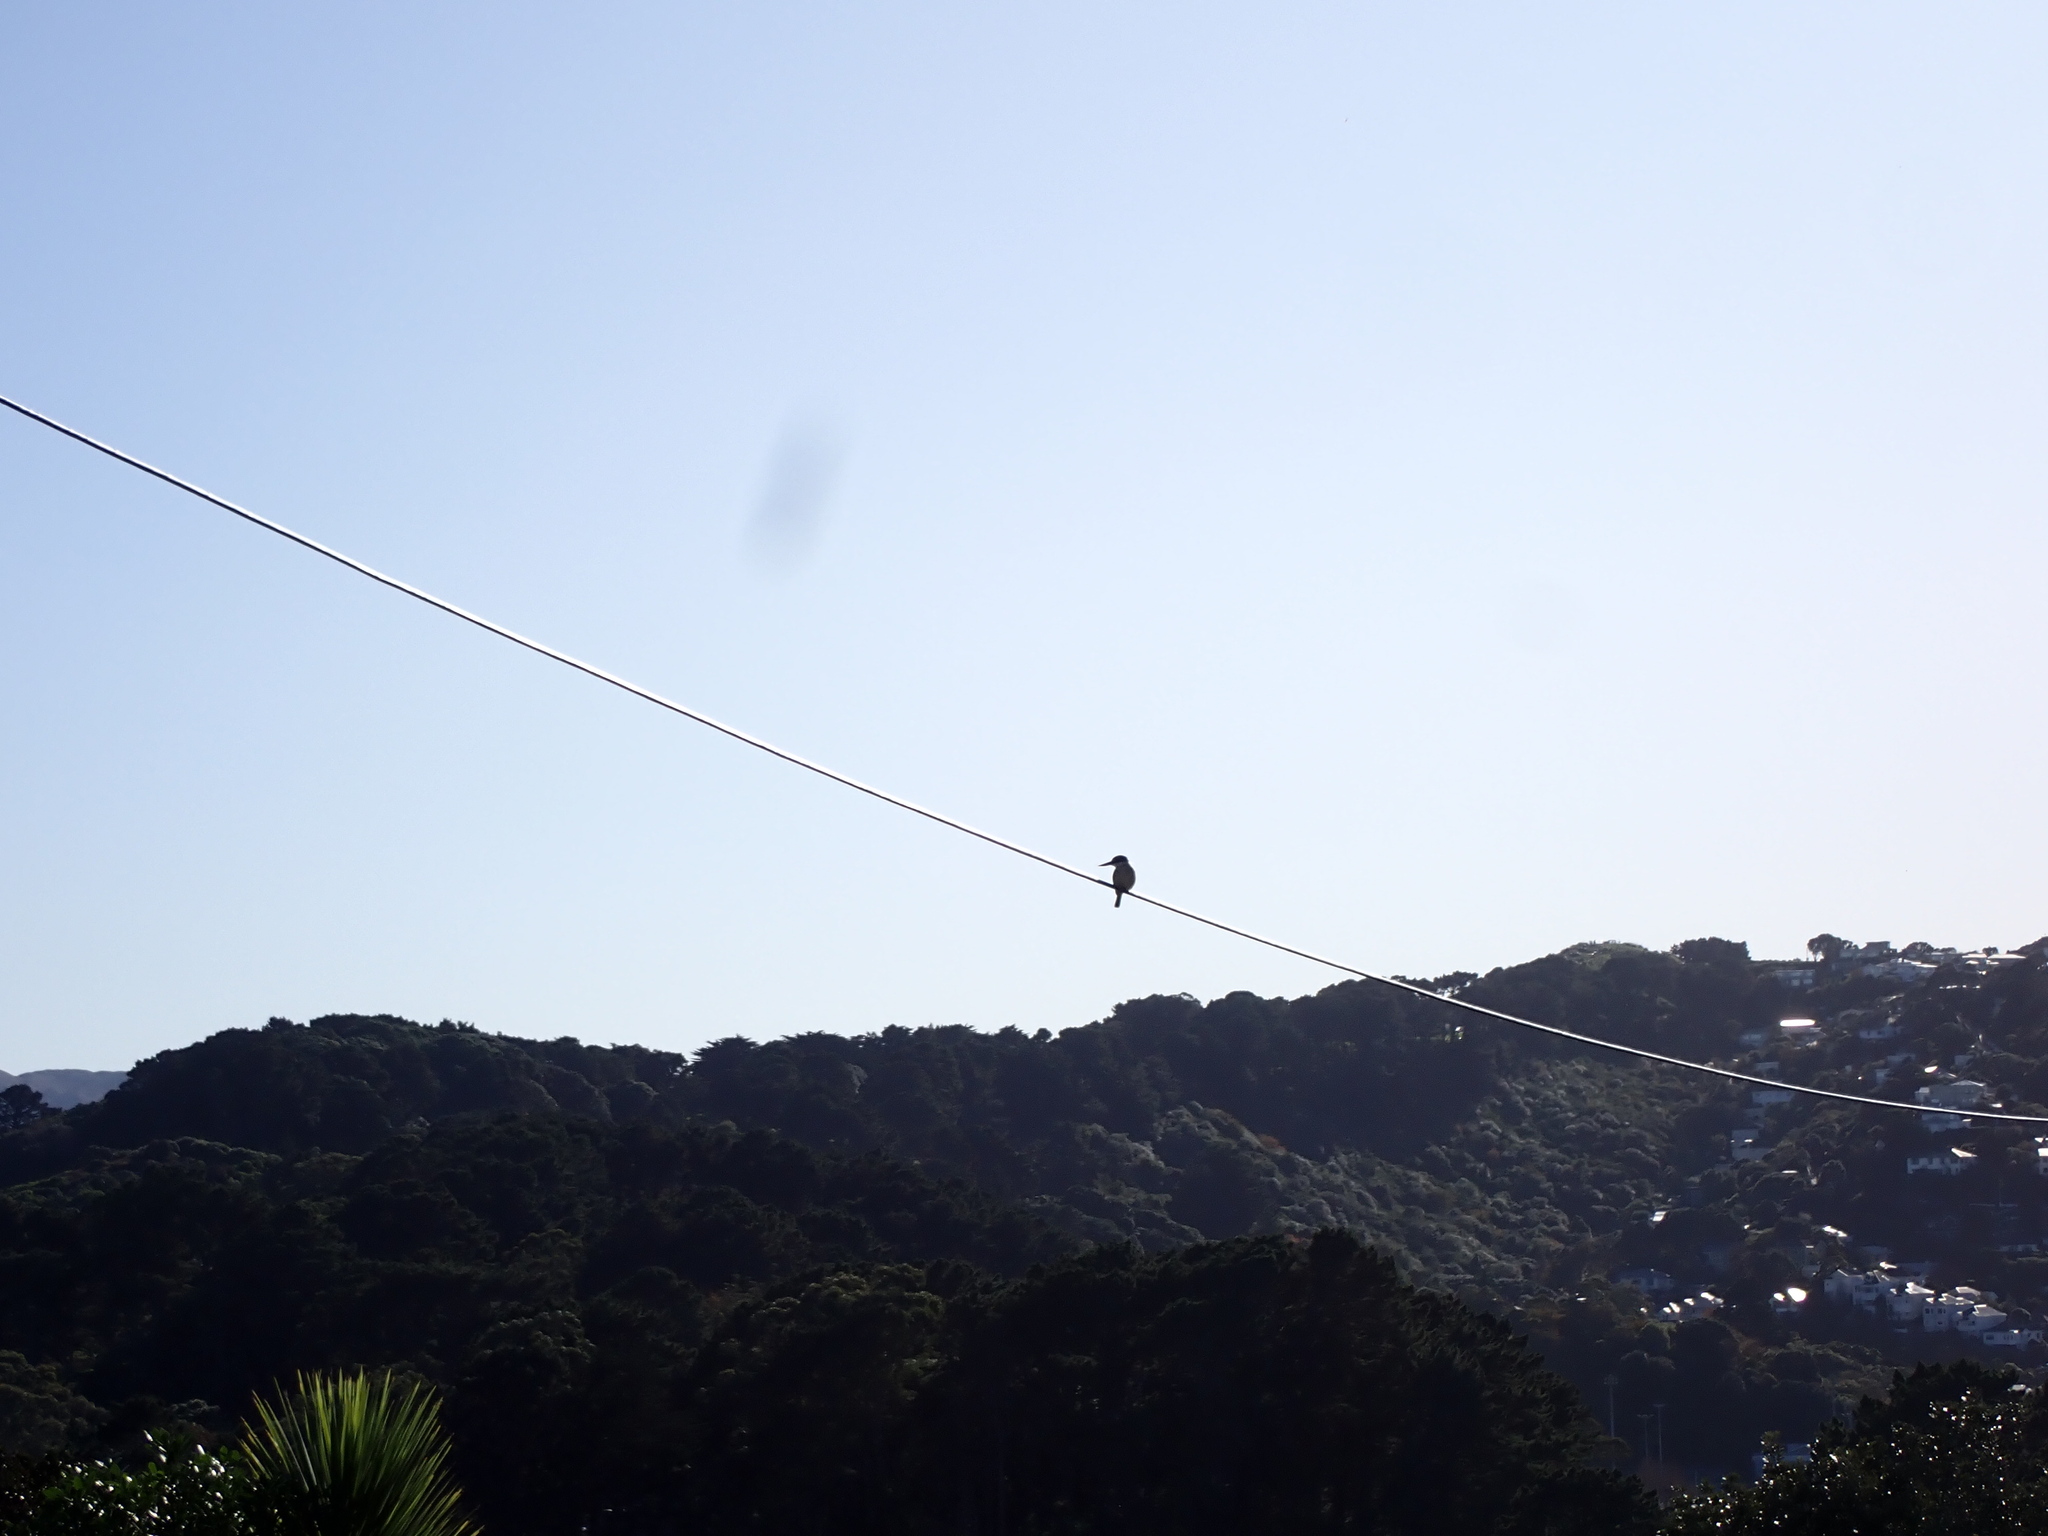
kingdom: Animalia
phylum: Chordata
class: Aves
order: Coraciiformes
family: Alcedinidae
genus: Todiramphus
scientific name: Todiramphus sanctus
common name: Sacred kingfisher
